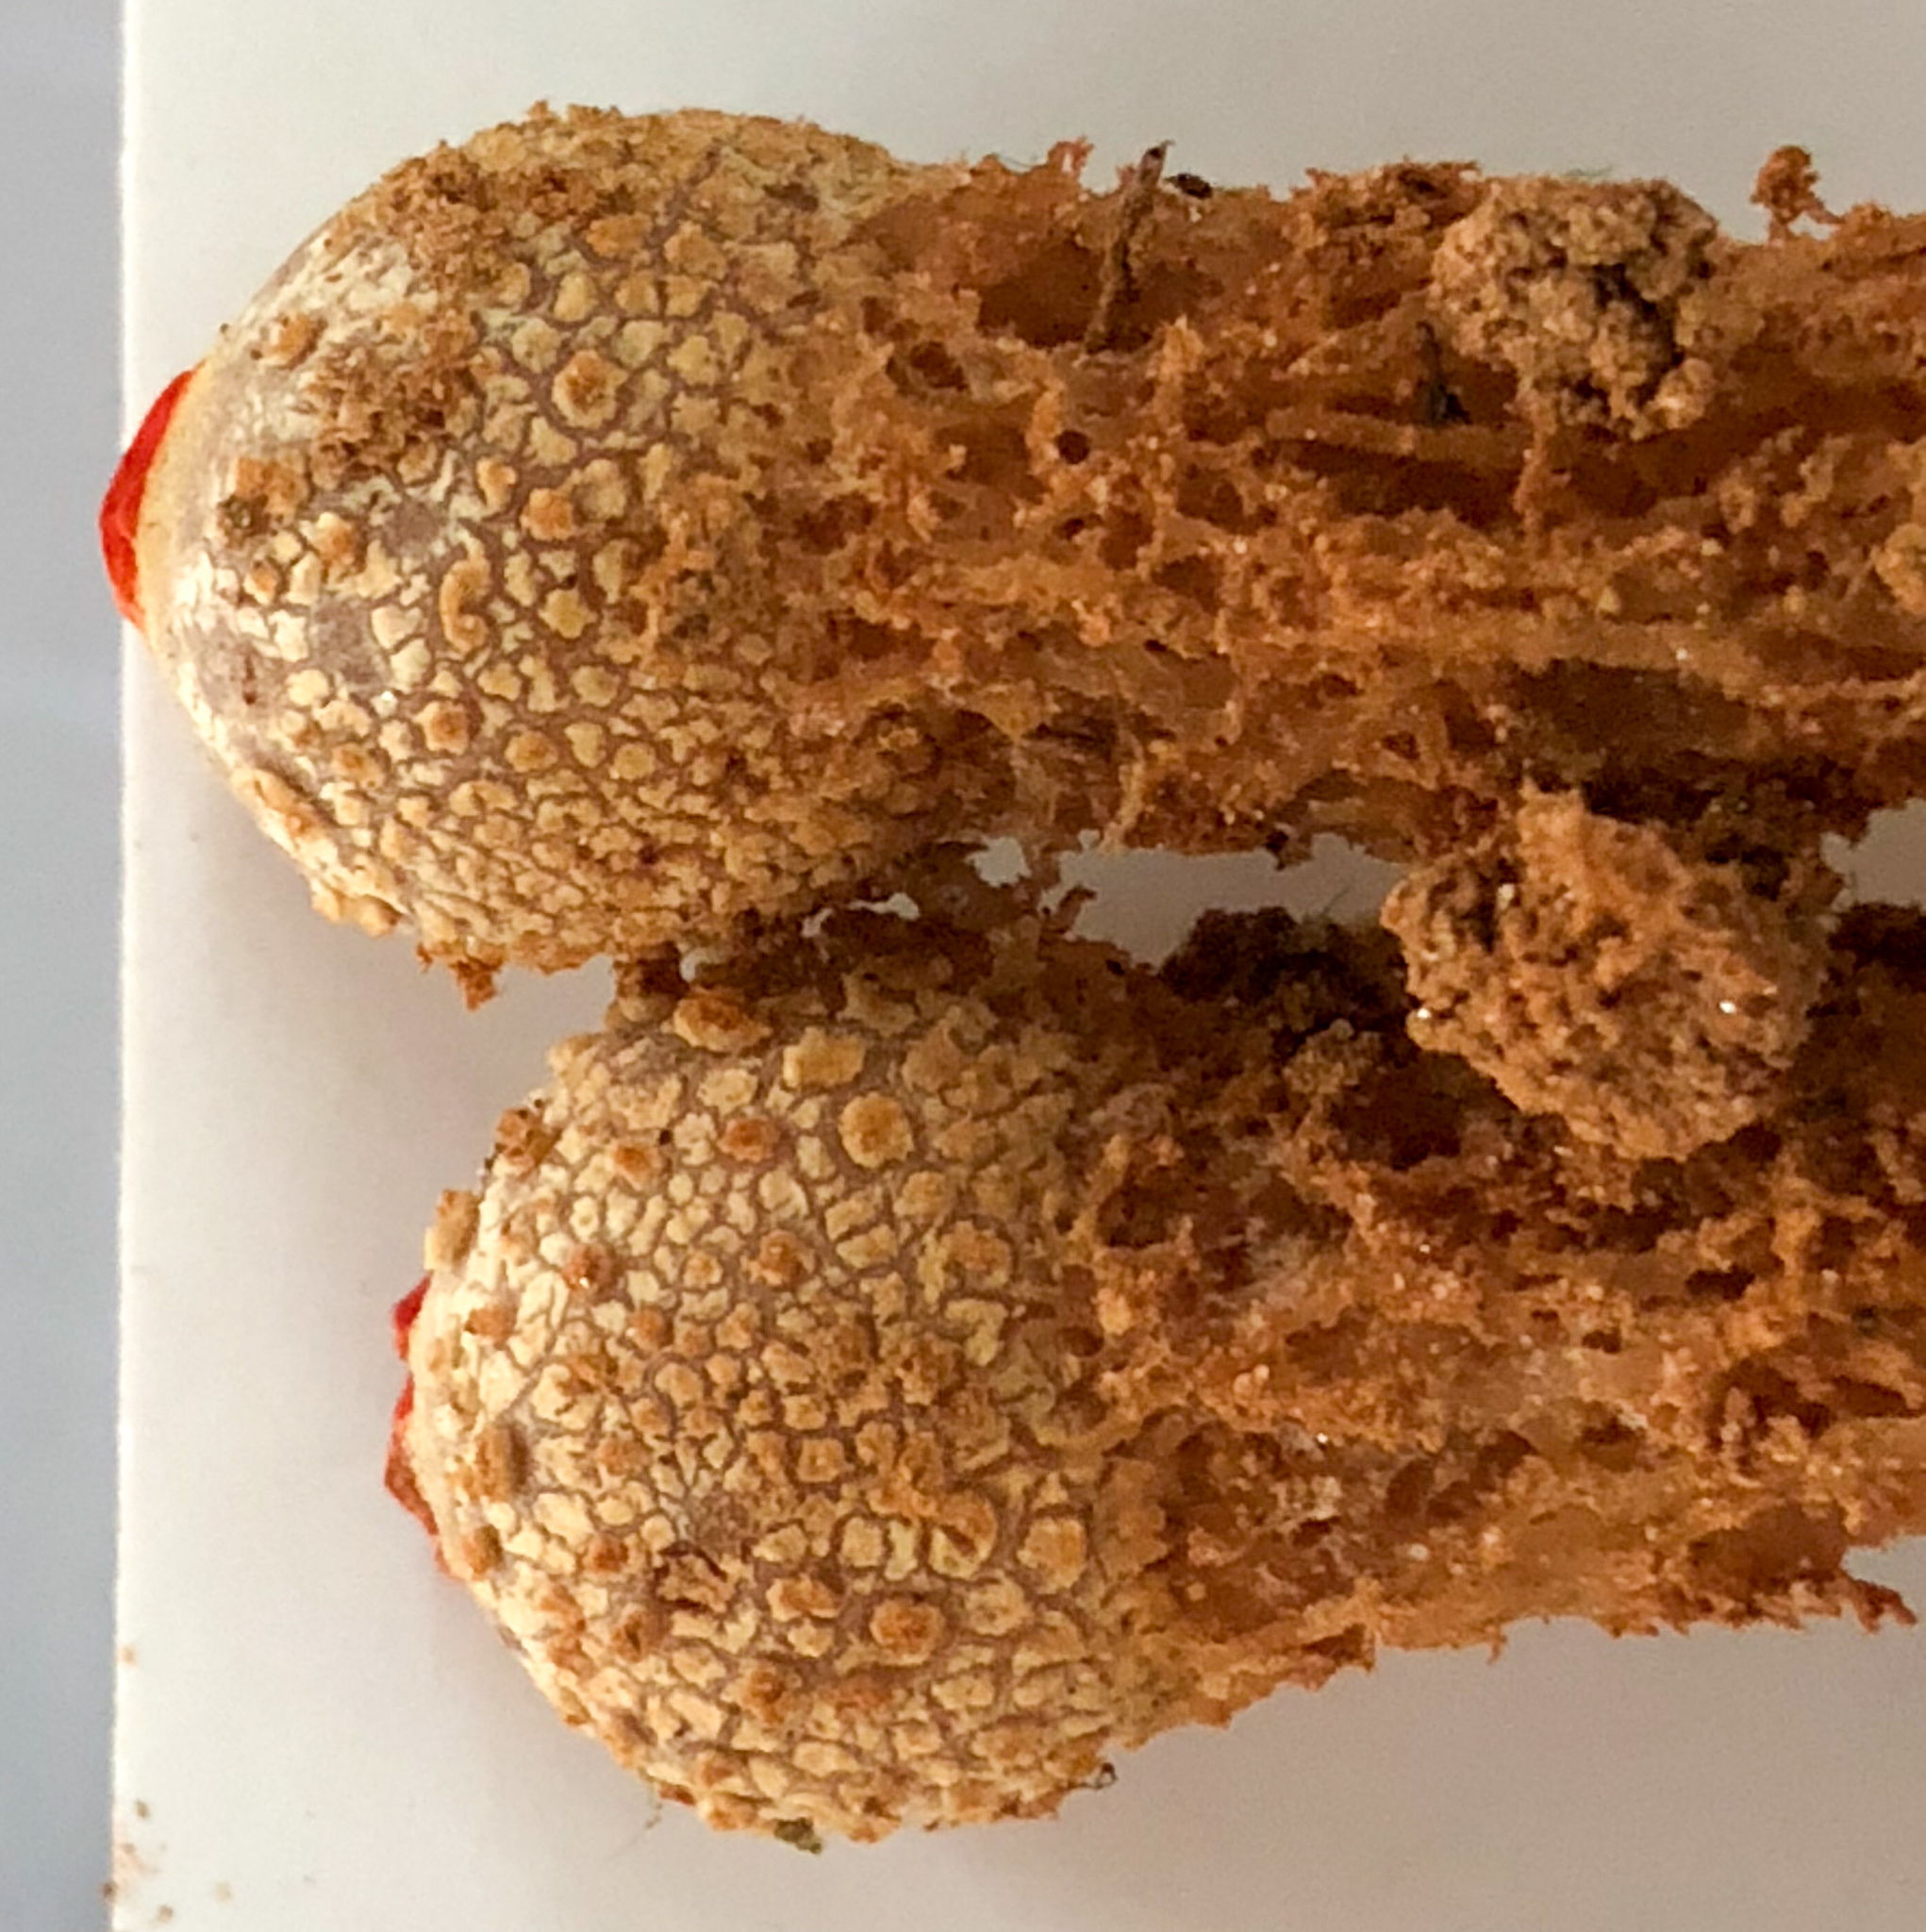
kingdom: Fungi
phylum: Basidiomycota
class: Agaricomycetes
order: Boletales
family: Calostomataceae
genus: Calostoma
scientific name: Calostoma ravenelii
